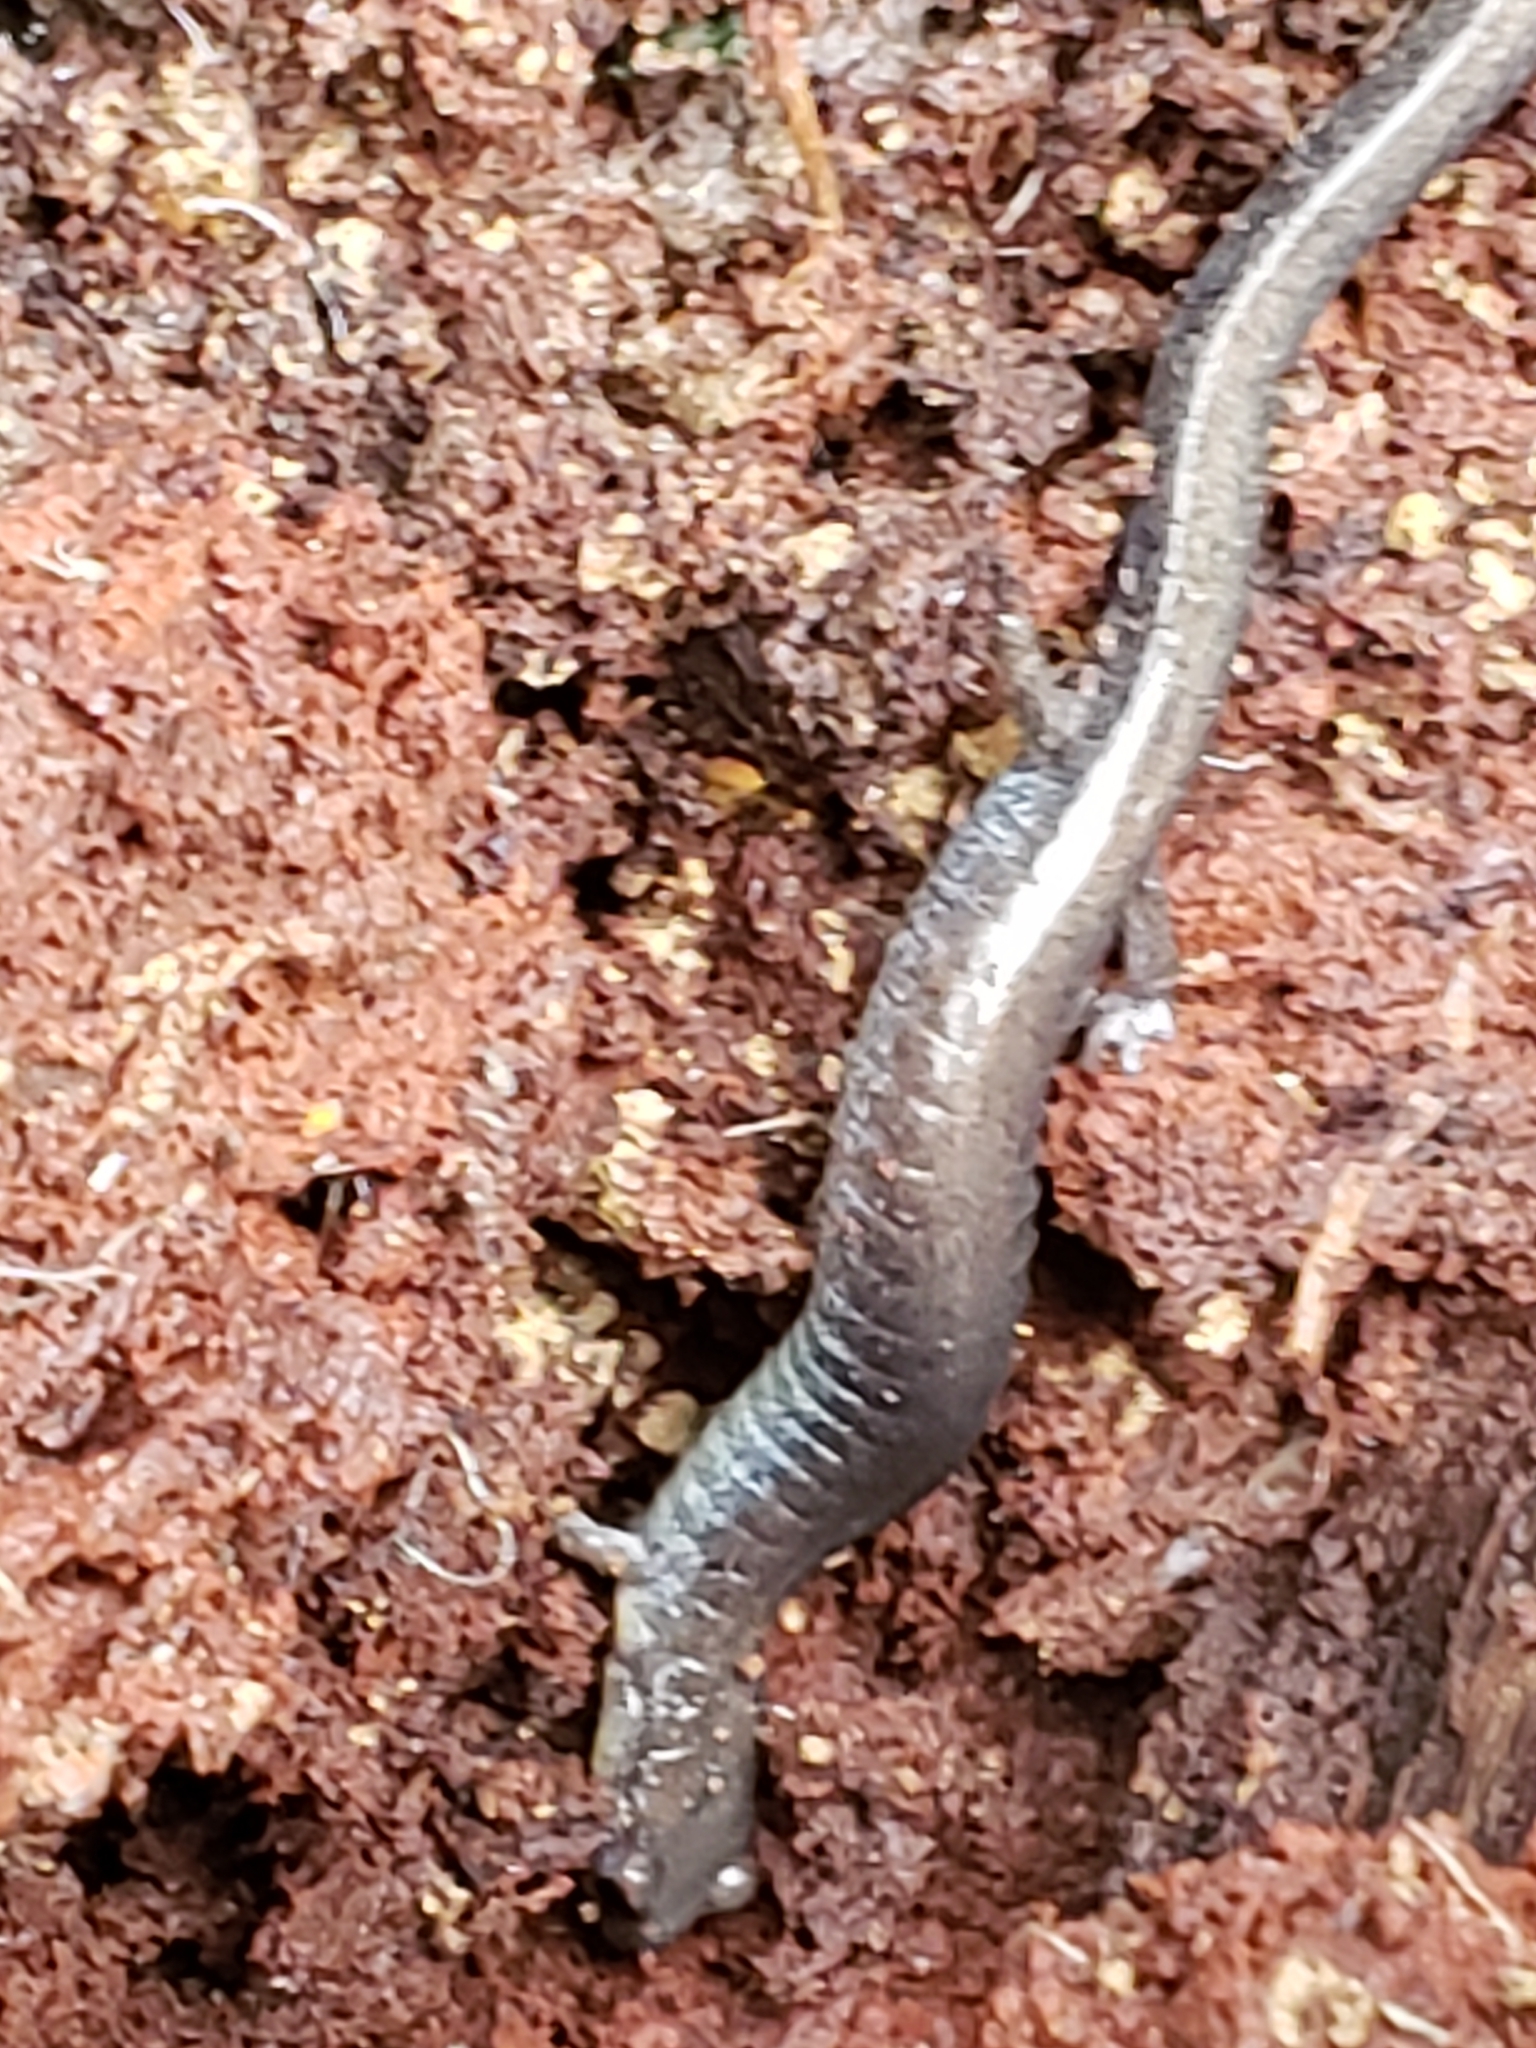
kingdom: Animalia
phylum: Chordata
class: Amphibia
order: Caudata
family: Plethodontidae
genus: Plethodon
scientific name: Plethodon cinereus
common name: Redback salamander
